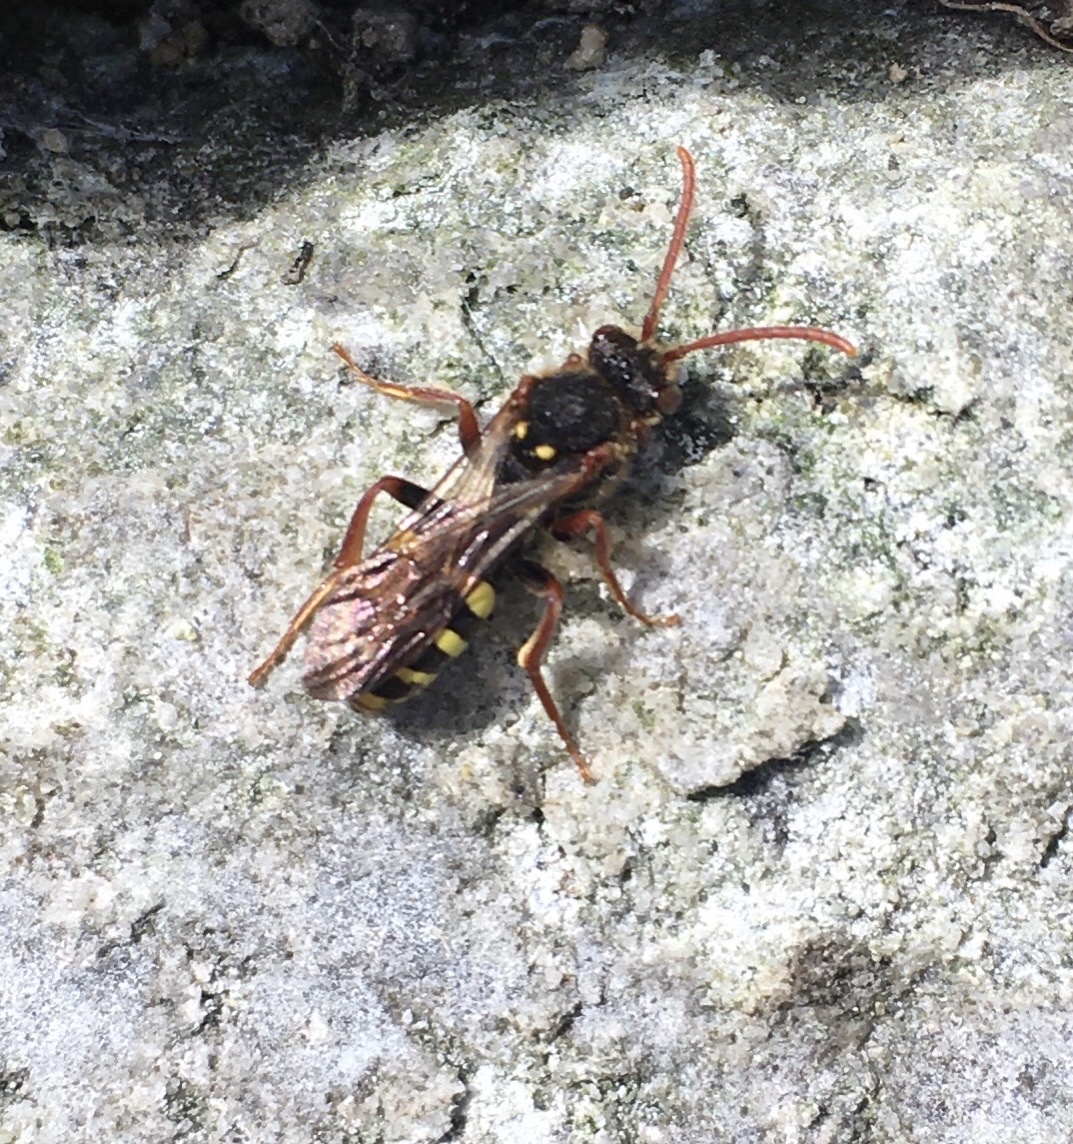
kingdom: Animalia
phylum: Arthropoda
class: Insecta
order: Hymenoptera
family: Apidae
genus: Nomada
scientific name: Nomada marshamella
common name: Marsham's nomad bee
